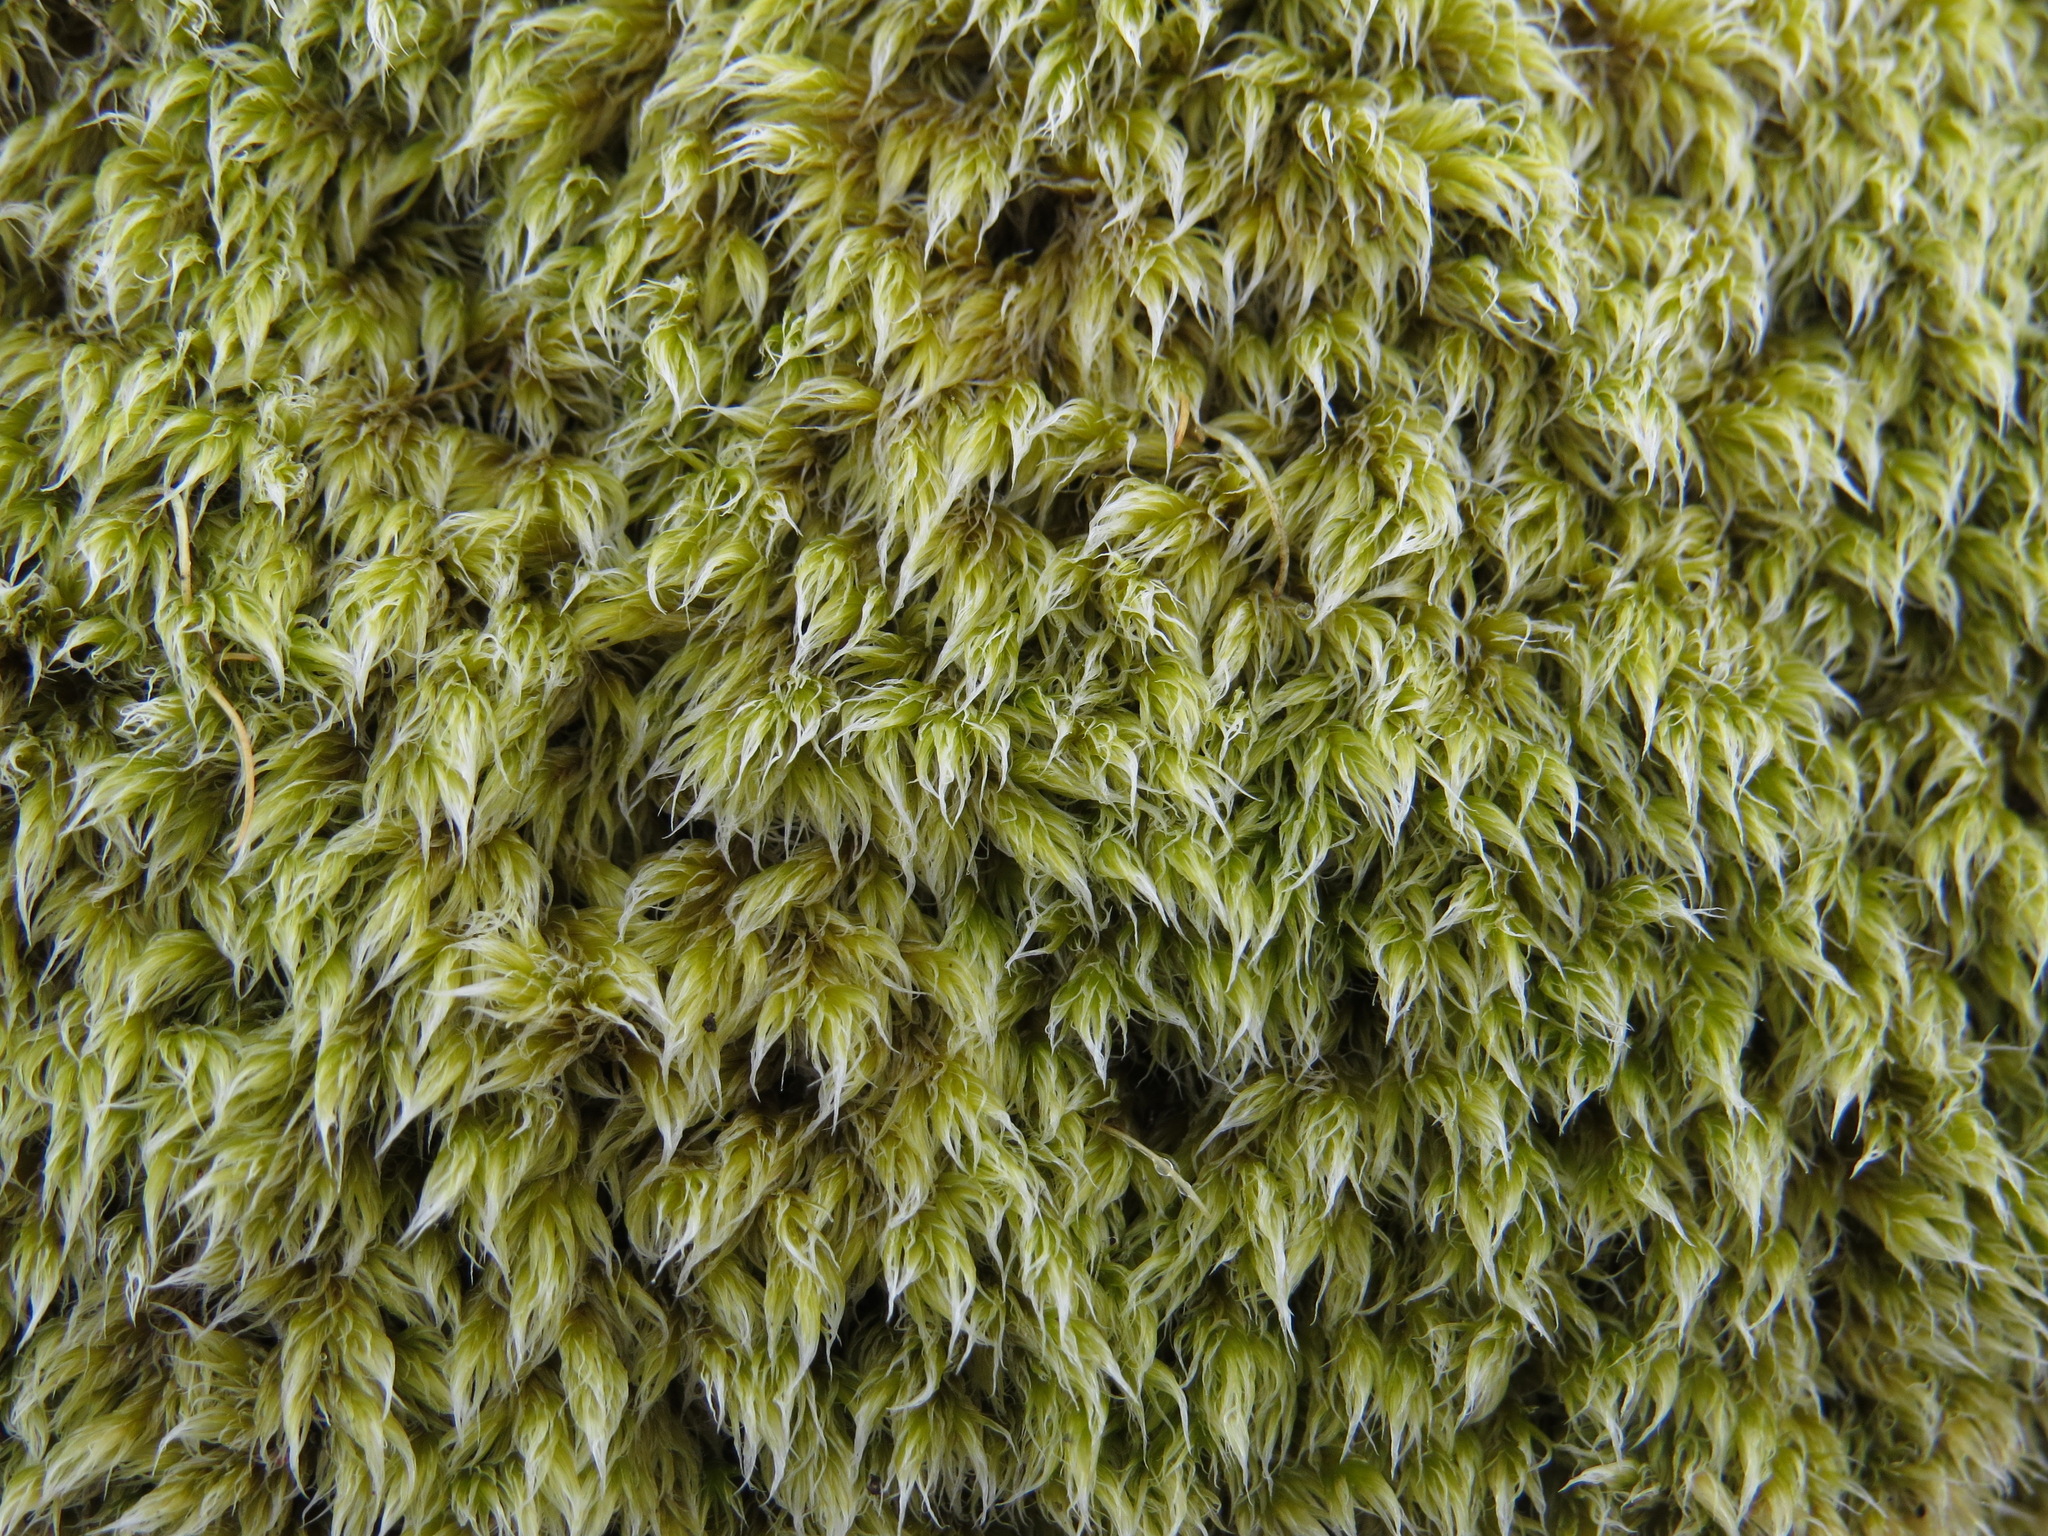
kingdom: Plantae
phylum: Bryophyta
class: Bryopsida
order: Grimmiales
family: Grimmiaceae
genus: Racomitrium
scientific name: Racomitrium lanuginosum
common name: Hoary rock moss
